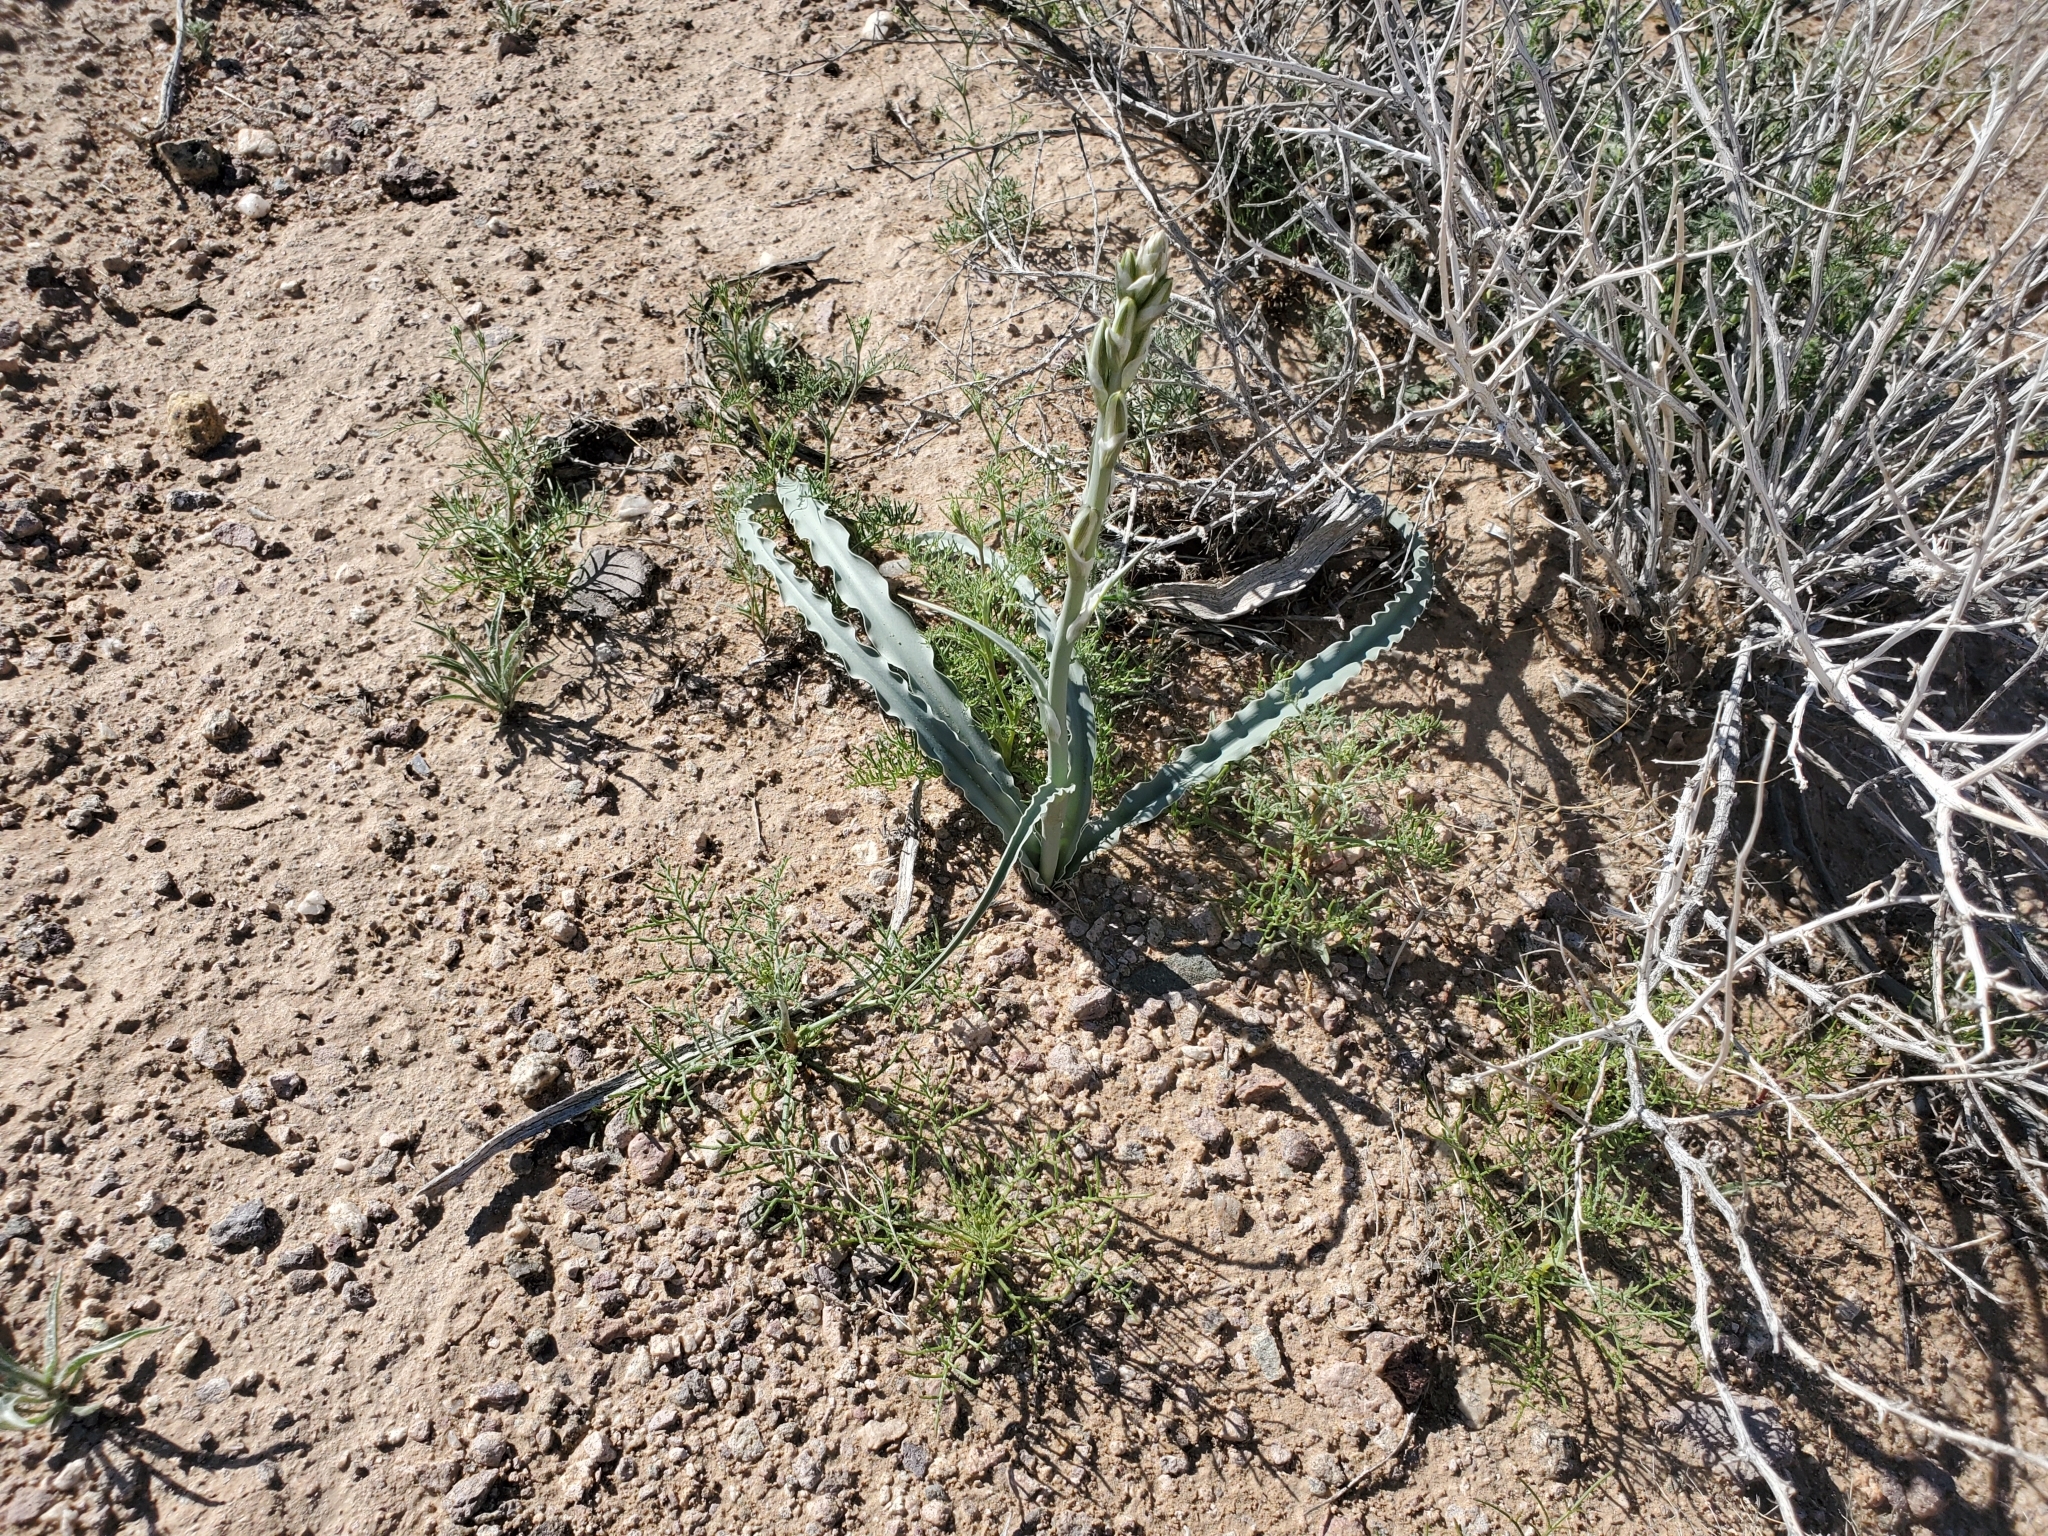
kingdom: Plantae
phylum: Tracheophyta
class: Liliopsida
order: Asparagales
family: Asparagaceae
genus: Hesperocallis
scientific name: Hesperocallis undulata
